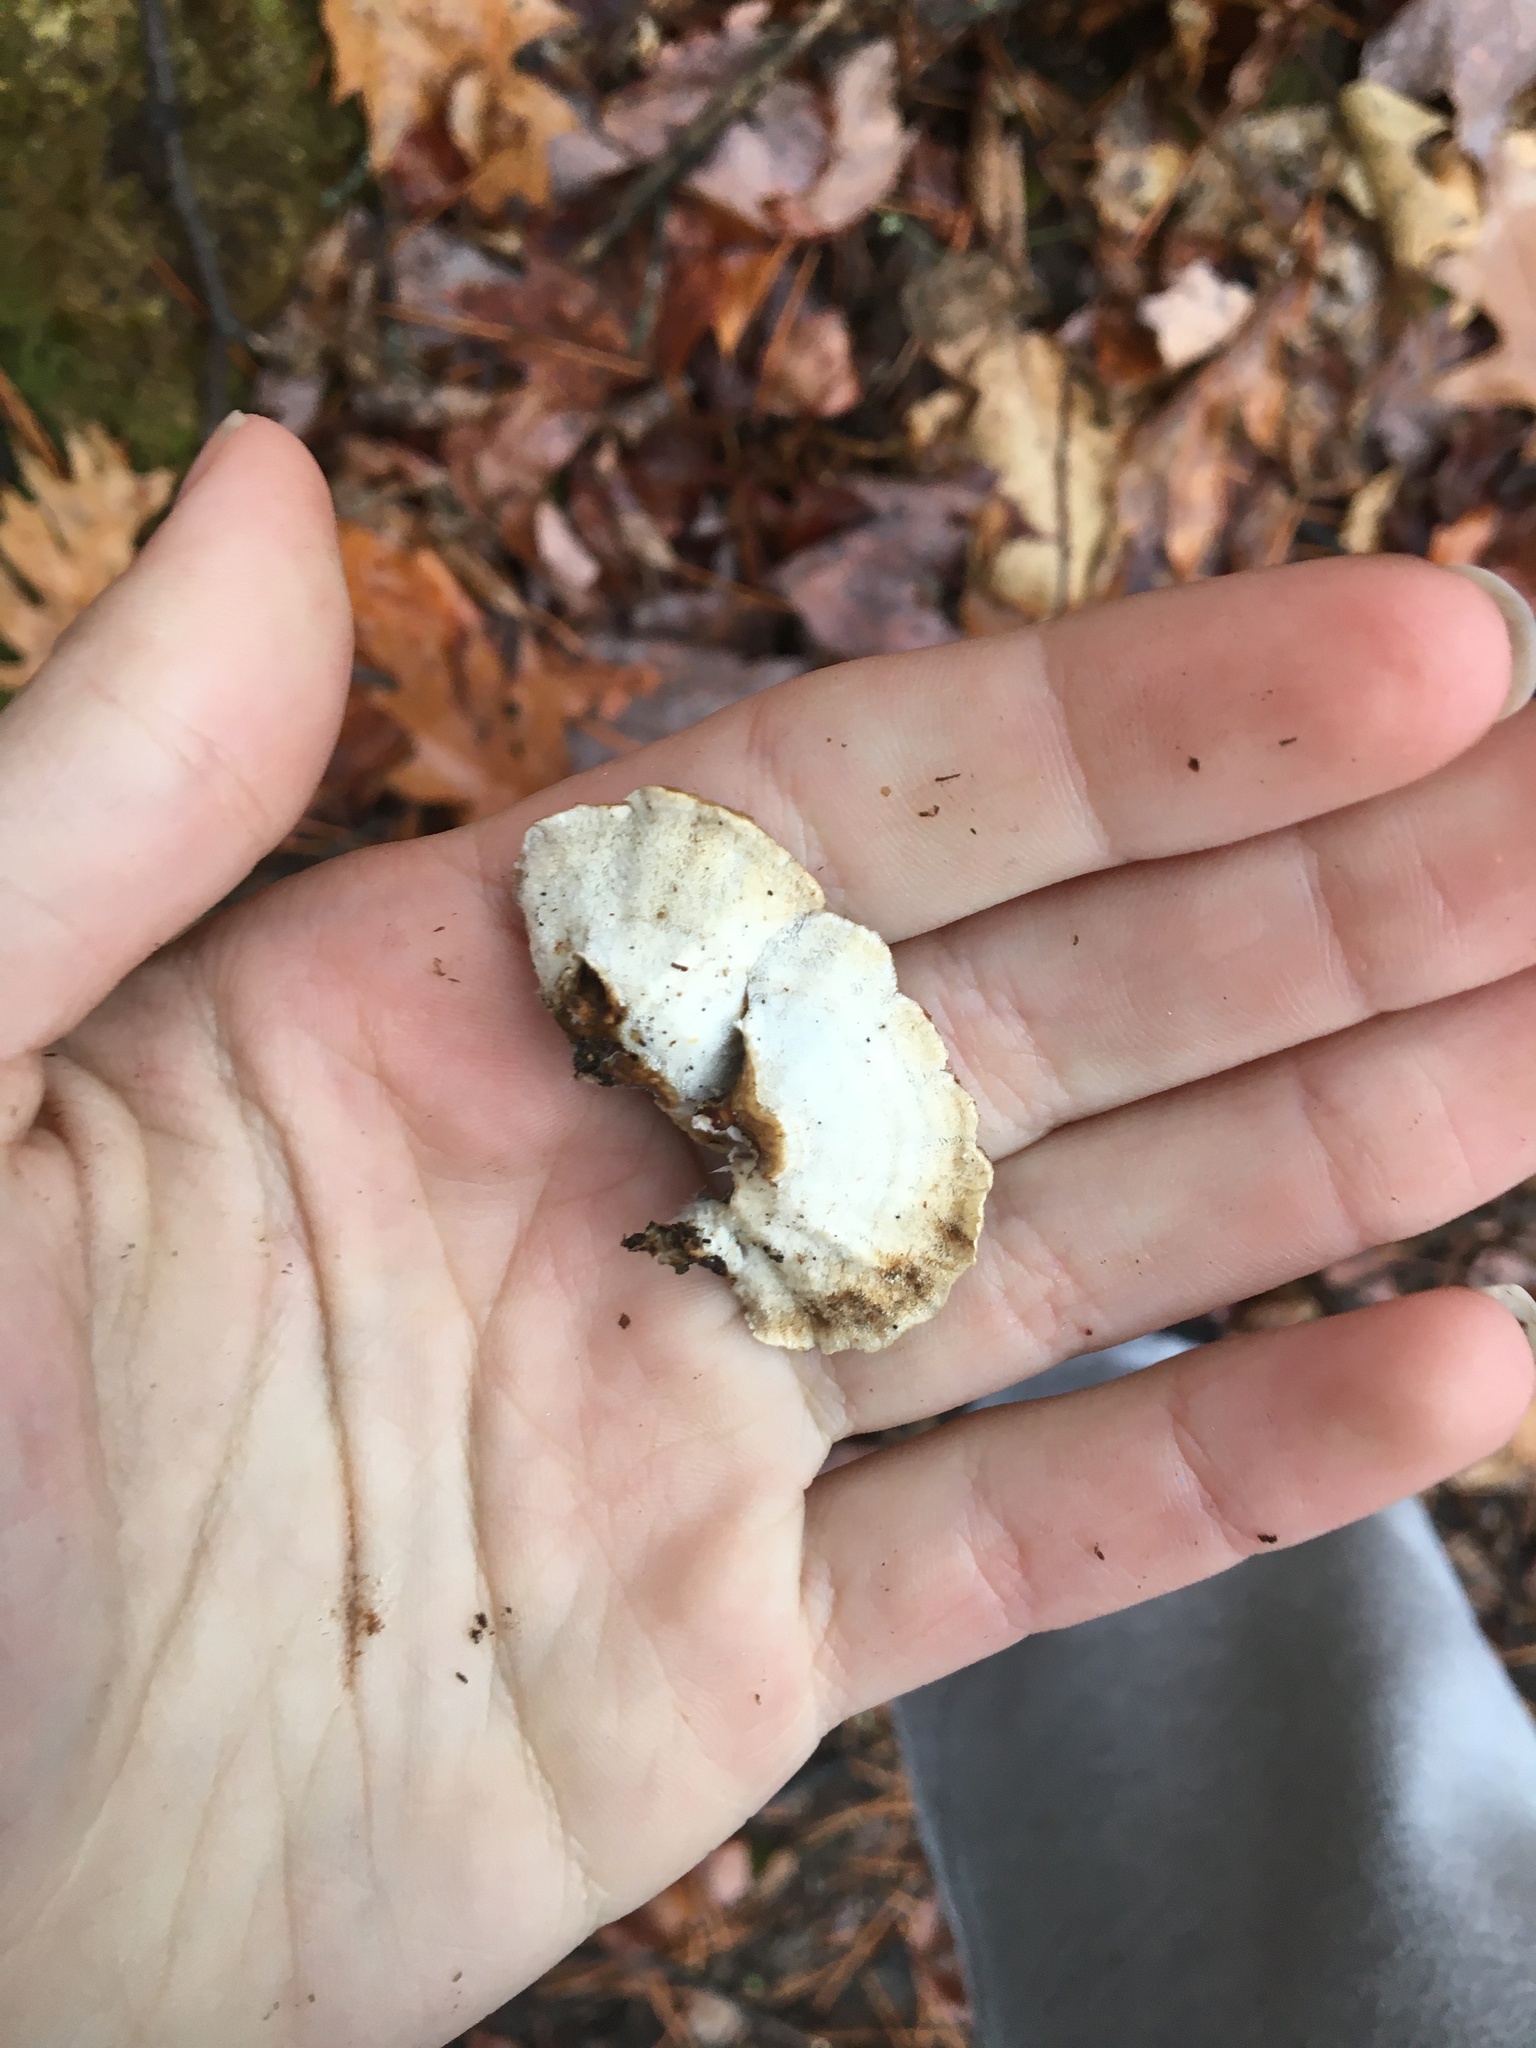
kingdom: Fungi
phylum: Basidiomycota
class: Agaricomycetes
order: Polyporales
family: Polyporaceae
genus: Trametes
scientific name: Trametes versicolor
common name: Turkeytail
